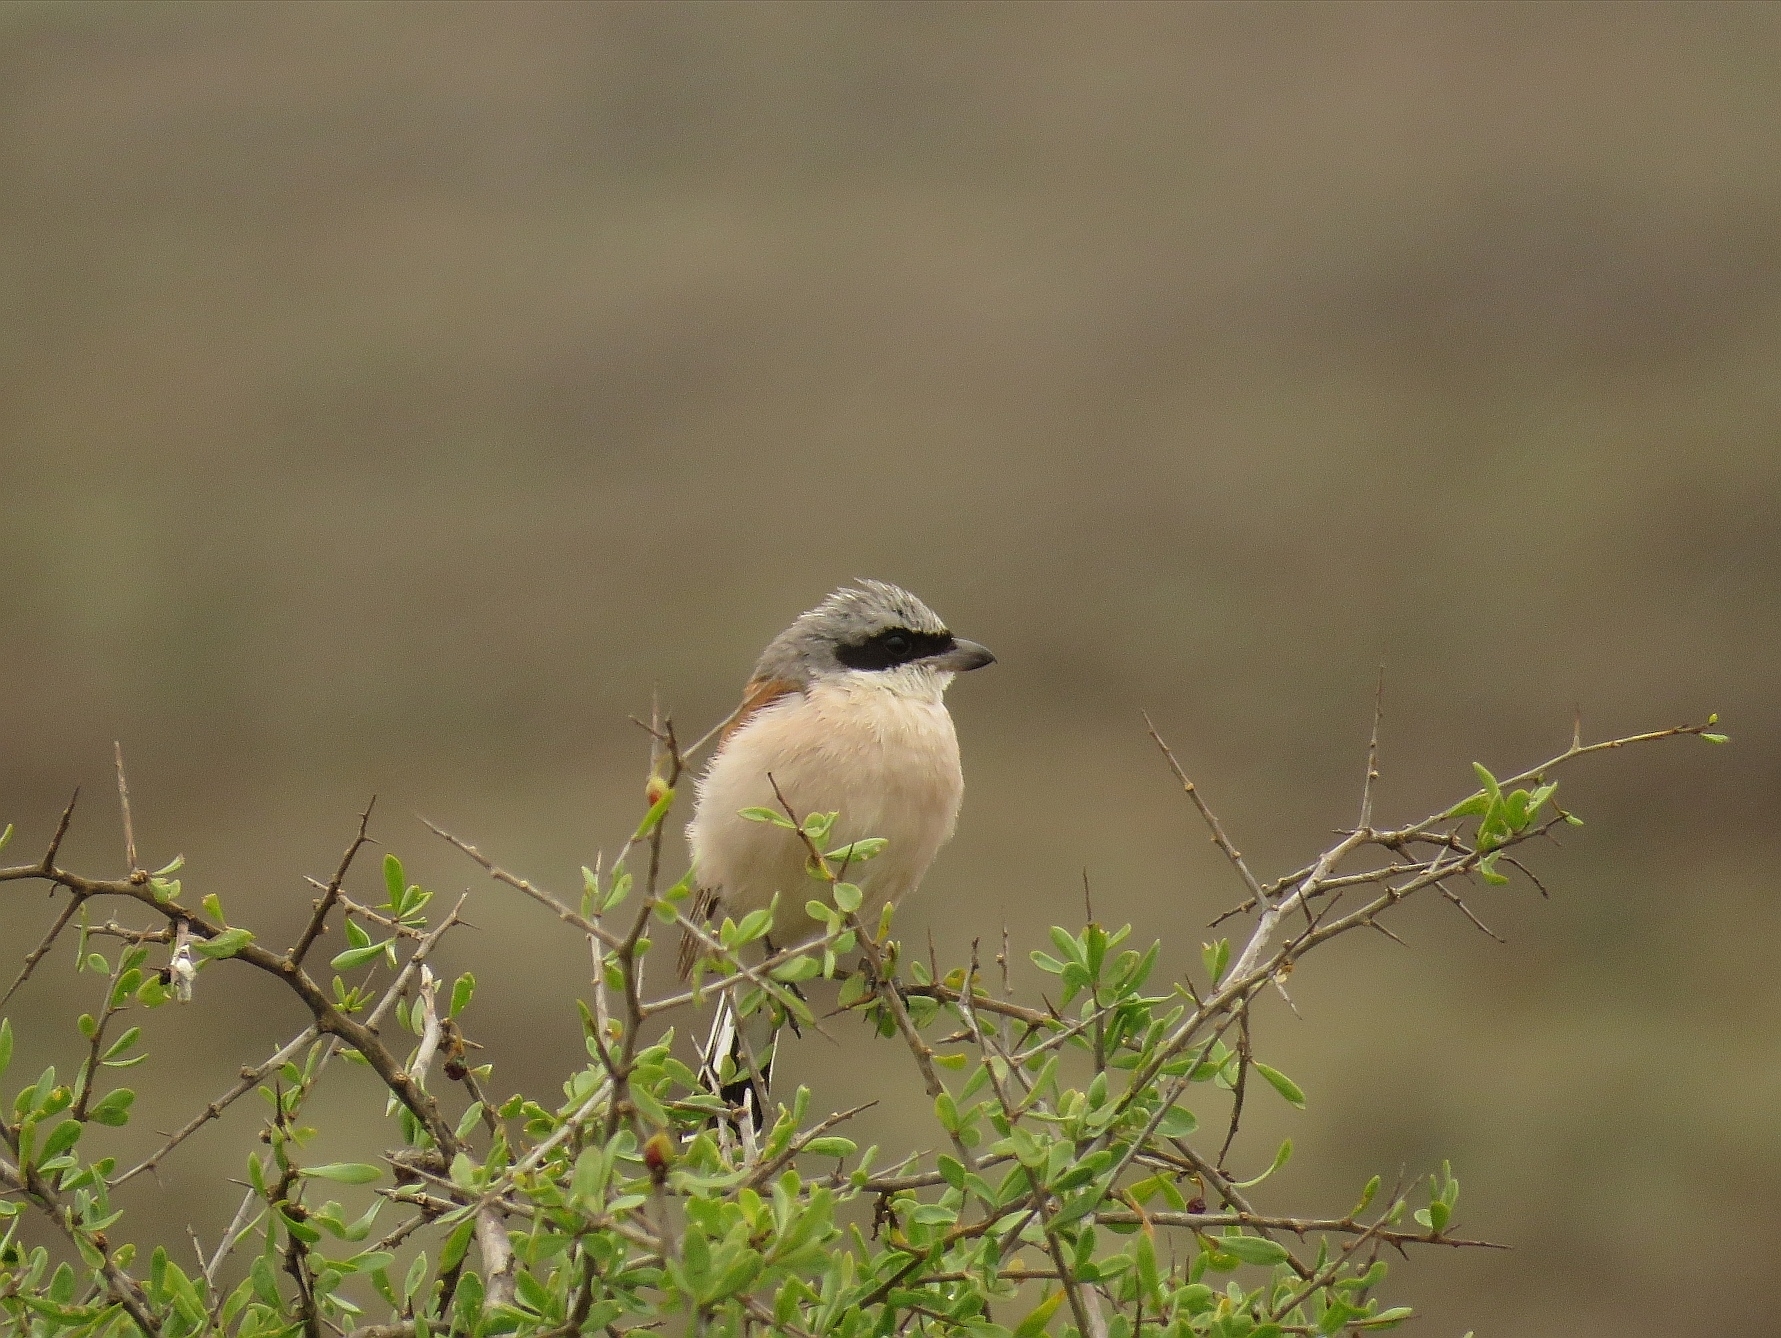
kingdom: Animalia
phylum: Chordata
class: Aves
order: Passeriformes
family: Laniidae
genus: Lanius
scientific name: Lanius collurio
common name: Red-backed shrike
